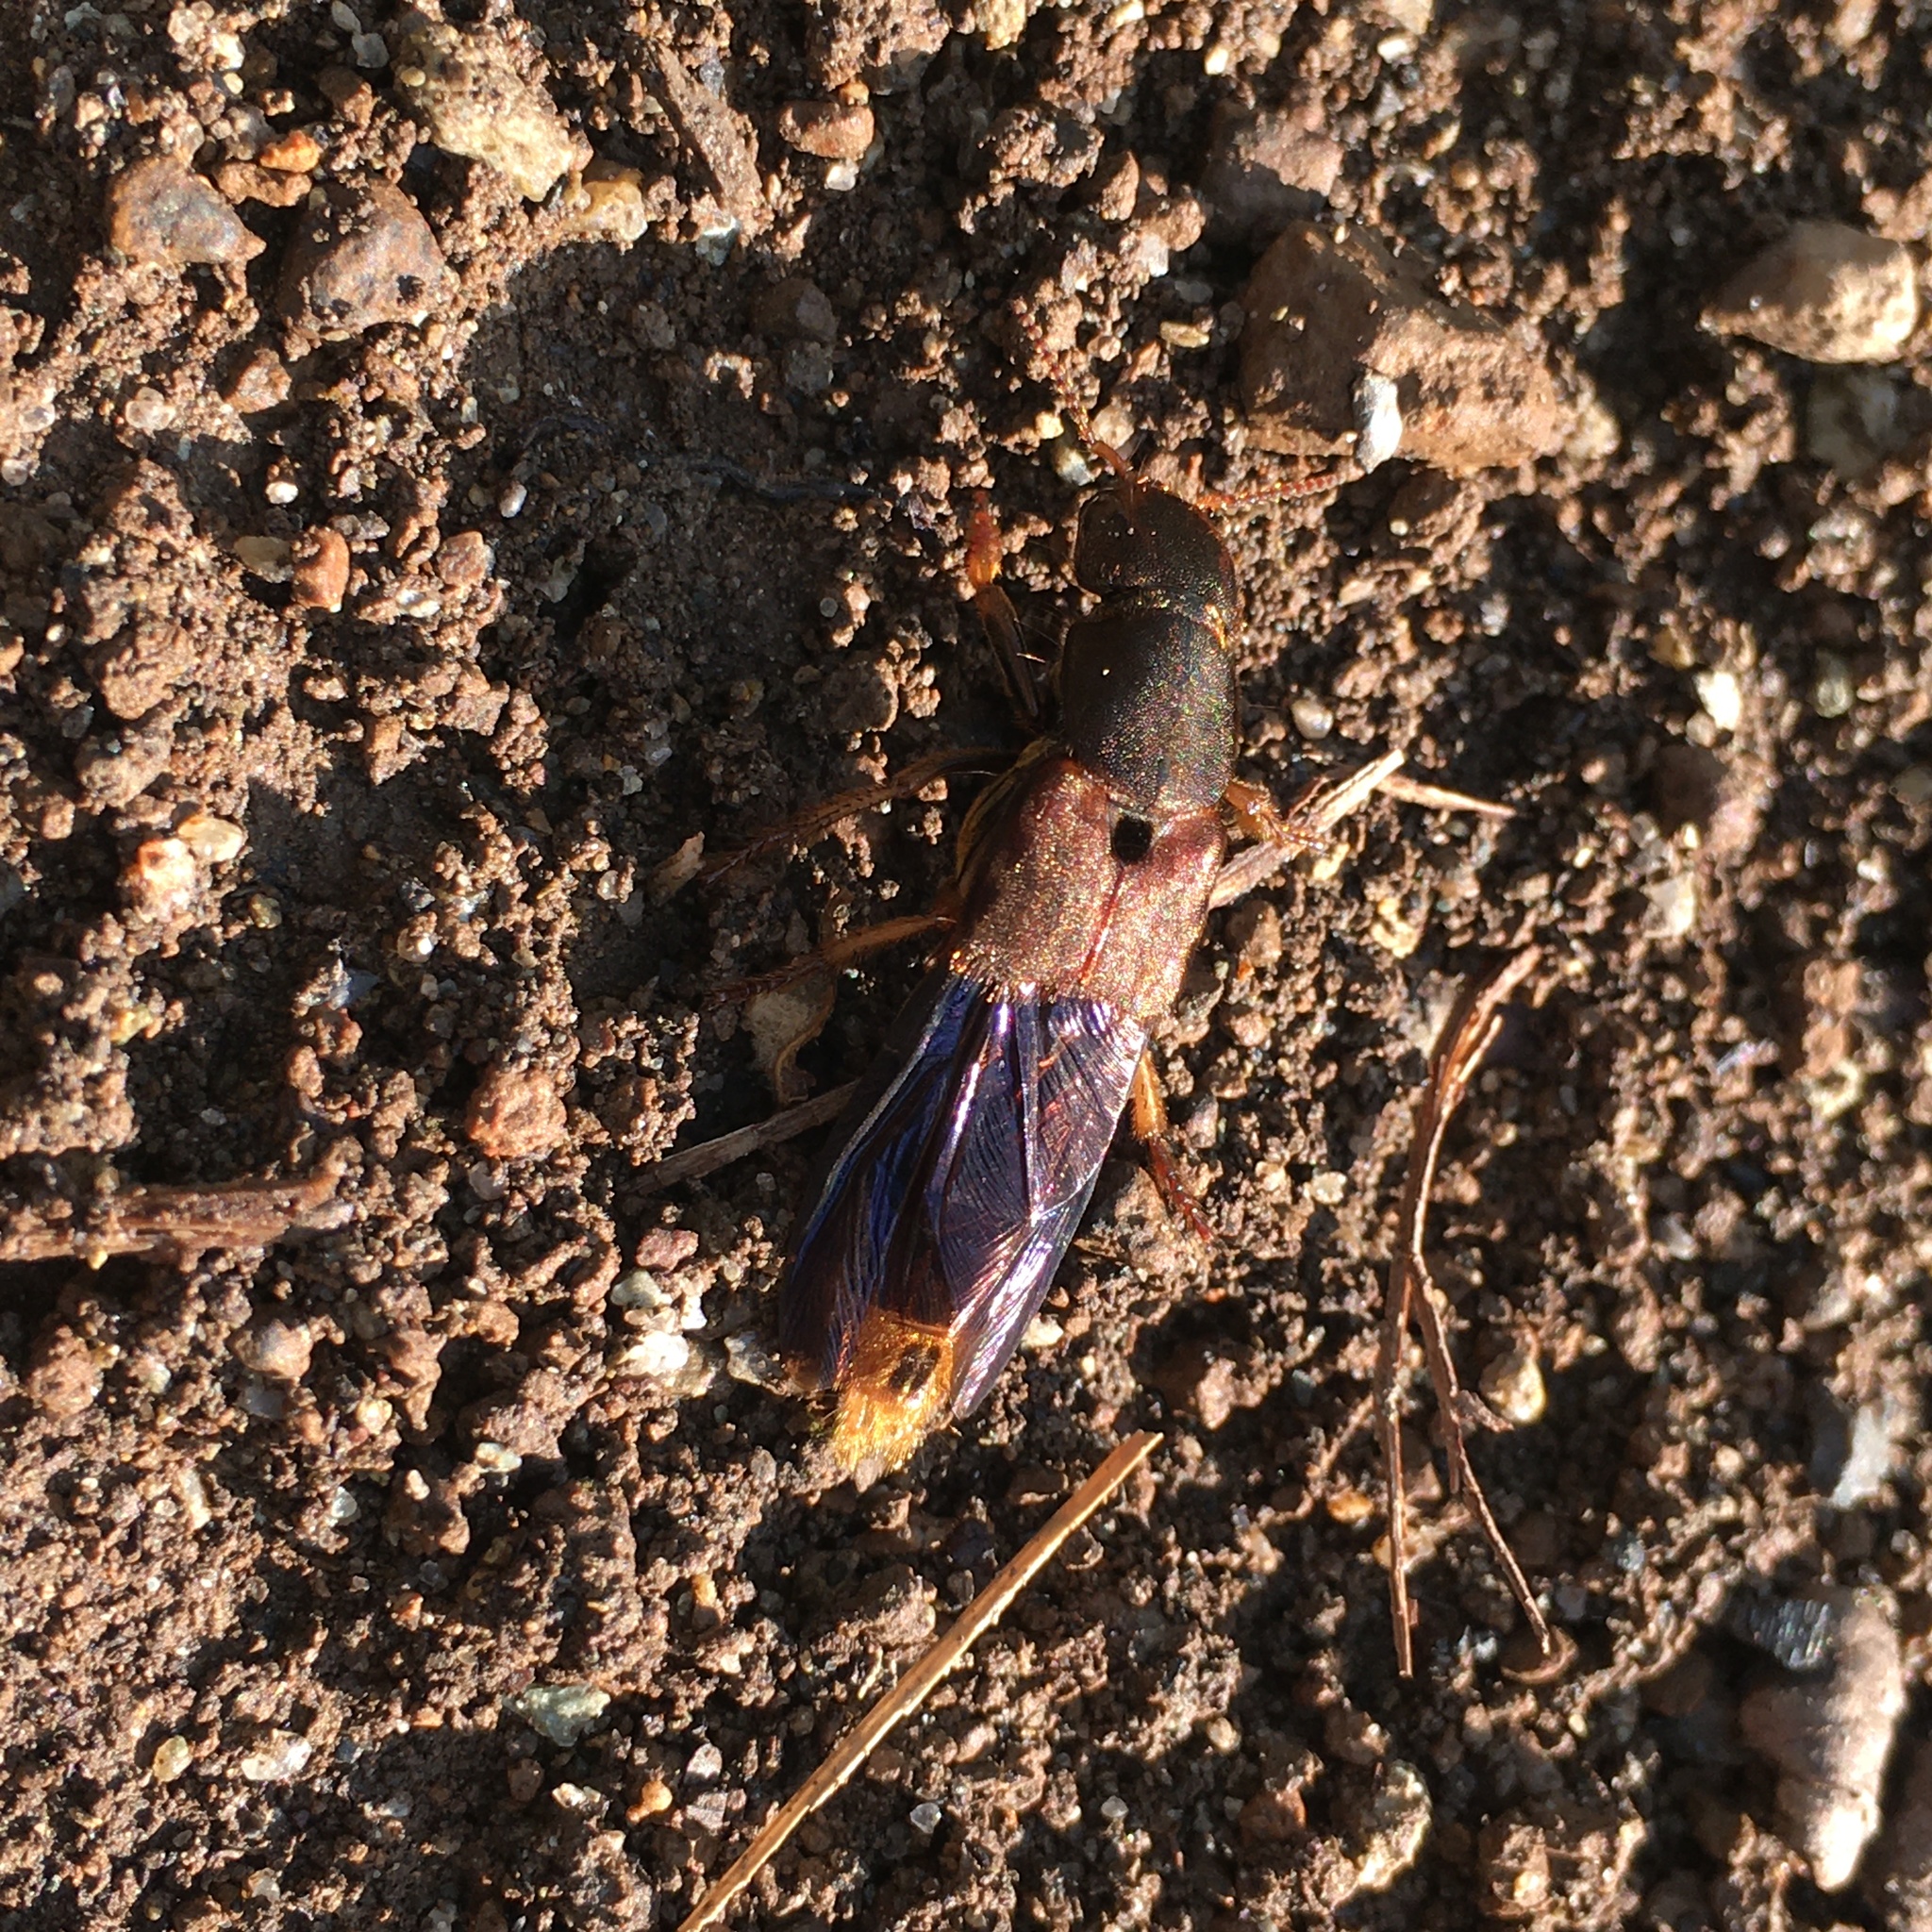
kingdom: Animalia
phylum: Arthropoda
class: Insecta
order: Coleoptera
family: Staphylinidae
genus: Platydracus
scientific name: Platydracus maculosus
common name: Brown rove beetle
